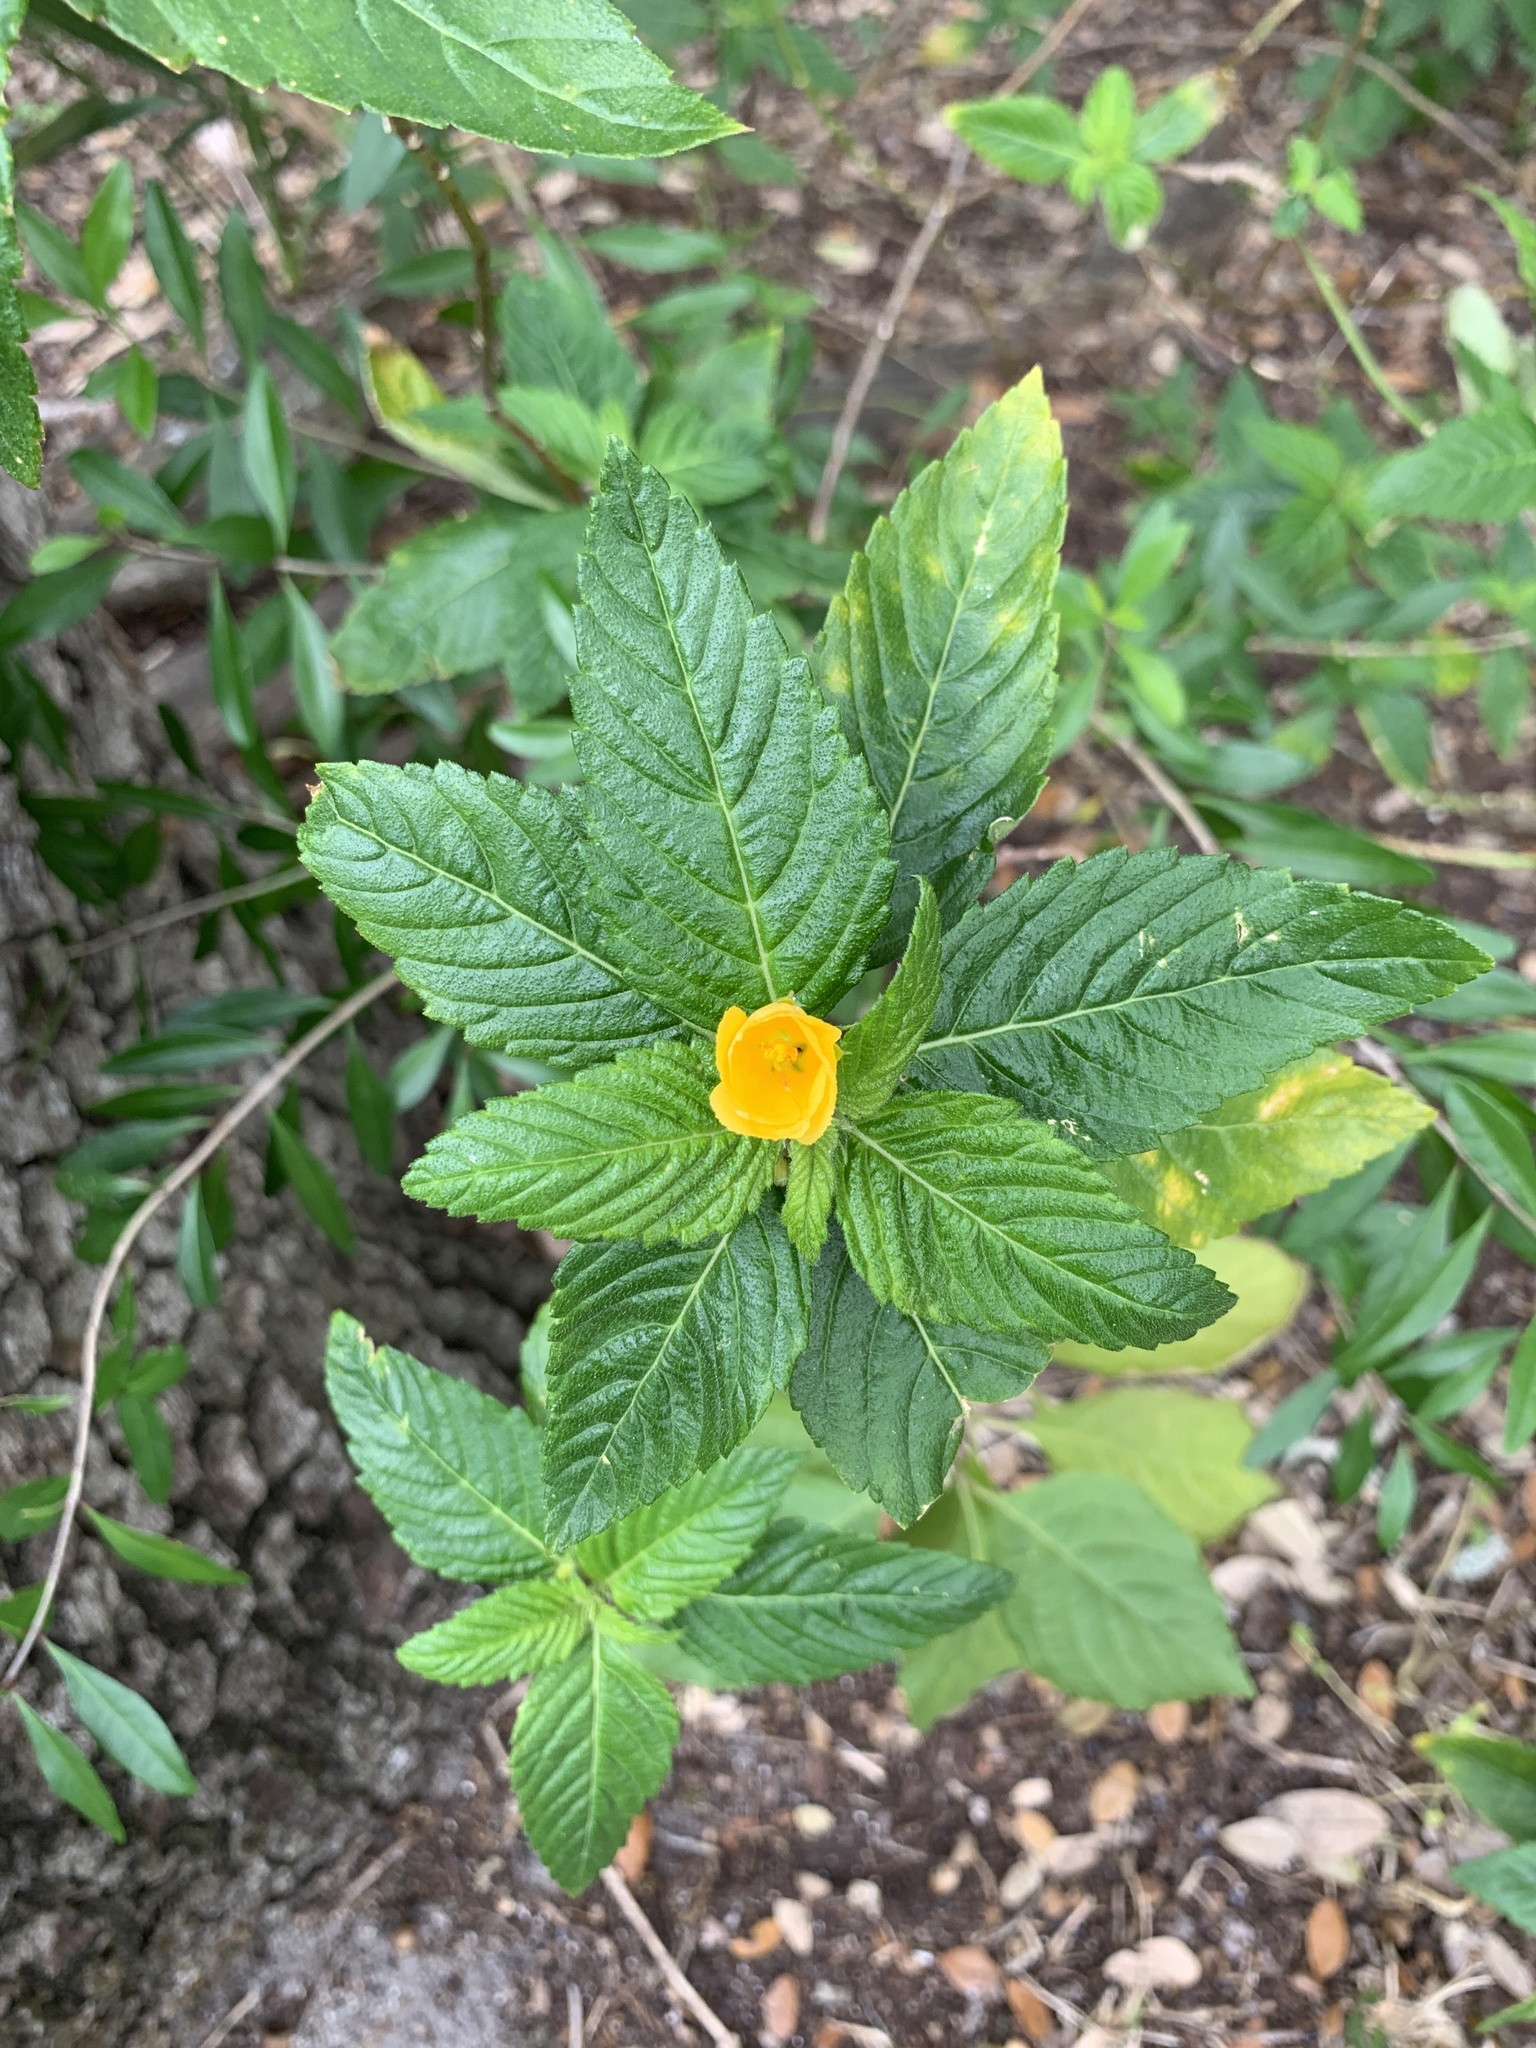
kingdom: Plantae
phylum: Tracheophyta
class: Magnoliopsida
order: Malpighiales
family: Turneraceae
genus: Turnera
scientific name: Turnera ulmifolia
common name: Ramgoat dashalong
